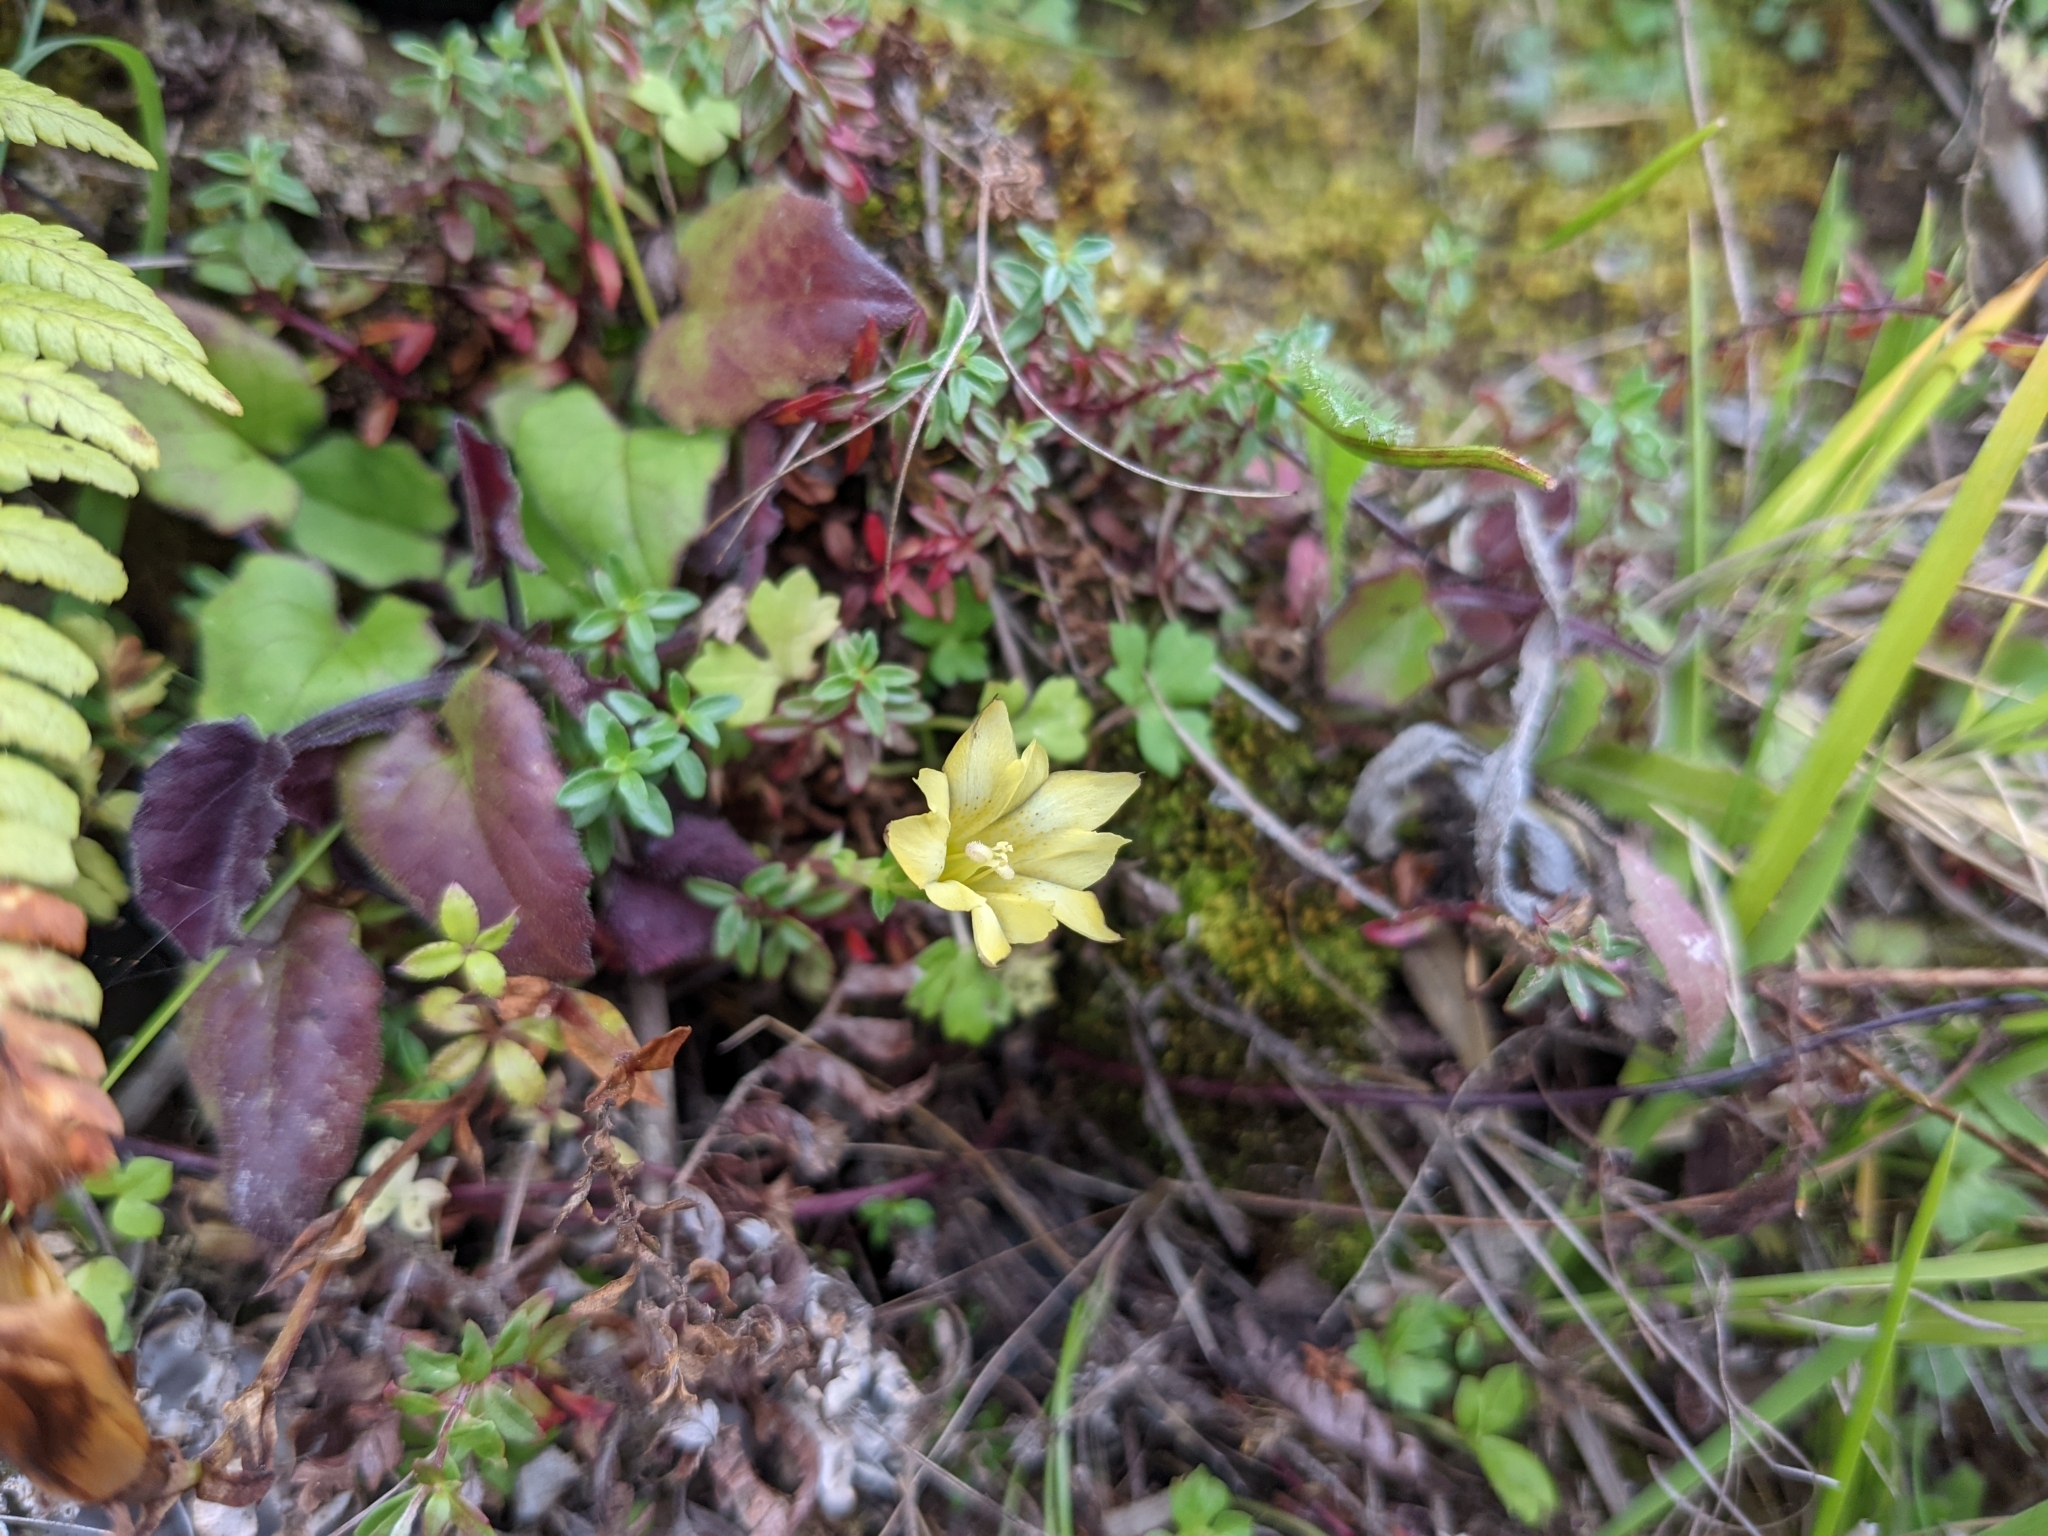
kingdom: Plantae
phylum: Tracheophyta
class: Magnoliopsida
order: Gentianales
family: Gentianaceae
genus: Gentiana
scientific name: Gentiana scabrida
